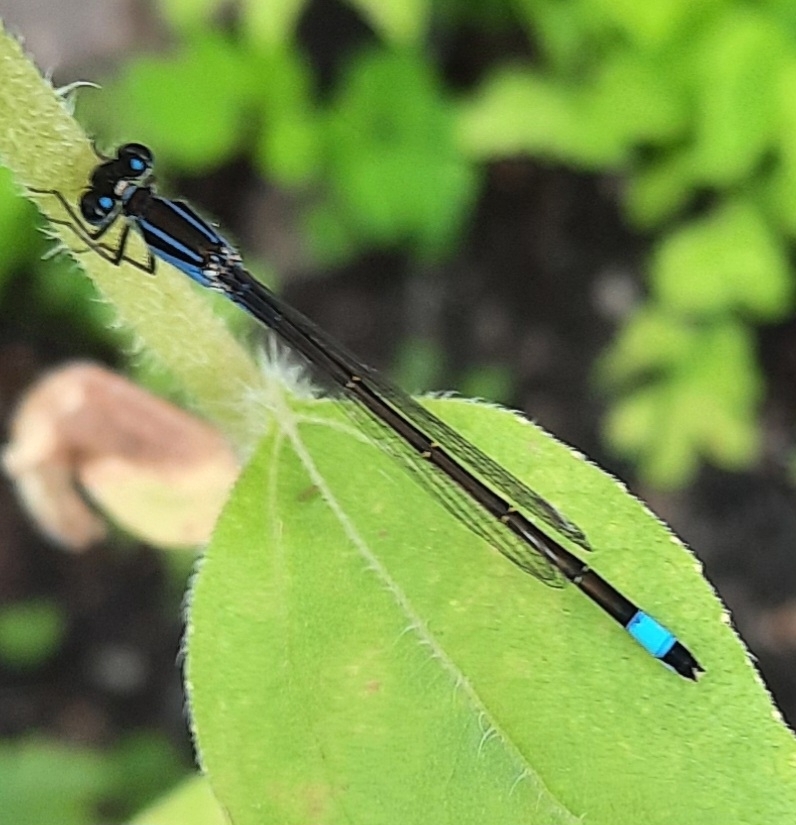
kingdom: Animalia
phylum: Arthropoda
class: Insecta
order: Odonata
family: Coenagrionidae
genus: Ischnura
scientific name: Ischnura elegans
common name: Blue-tailed damselfly
